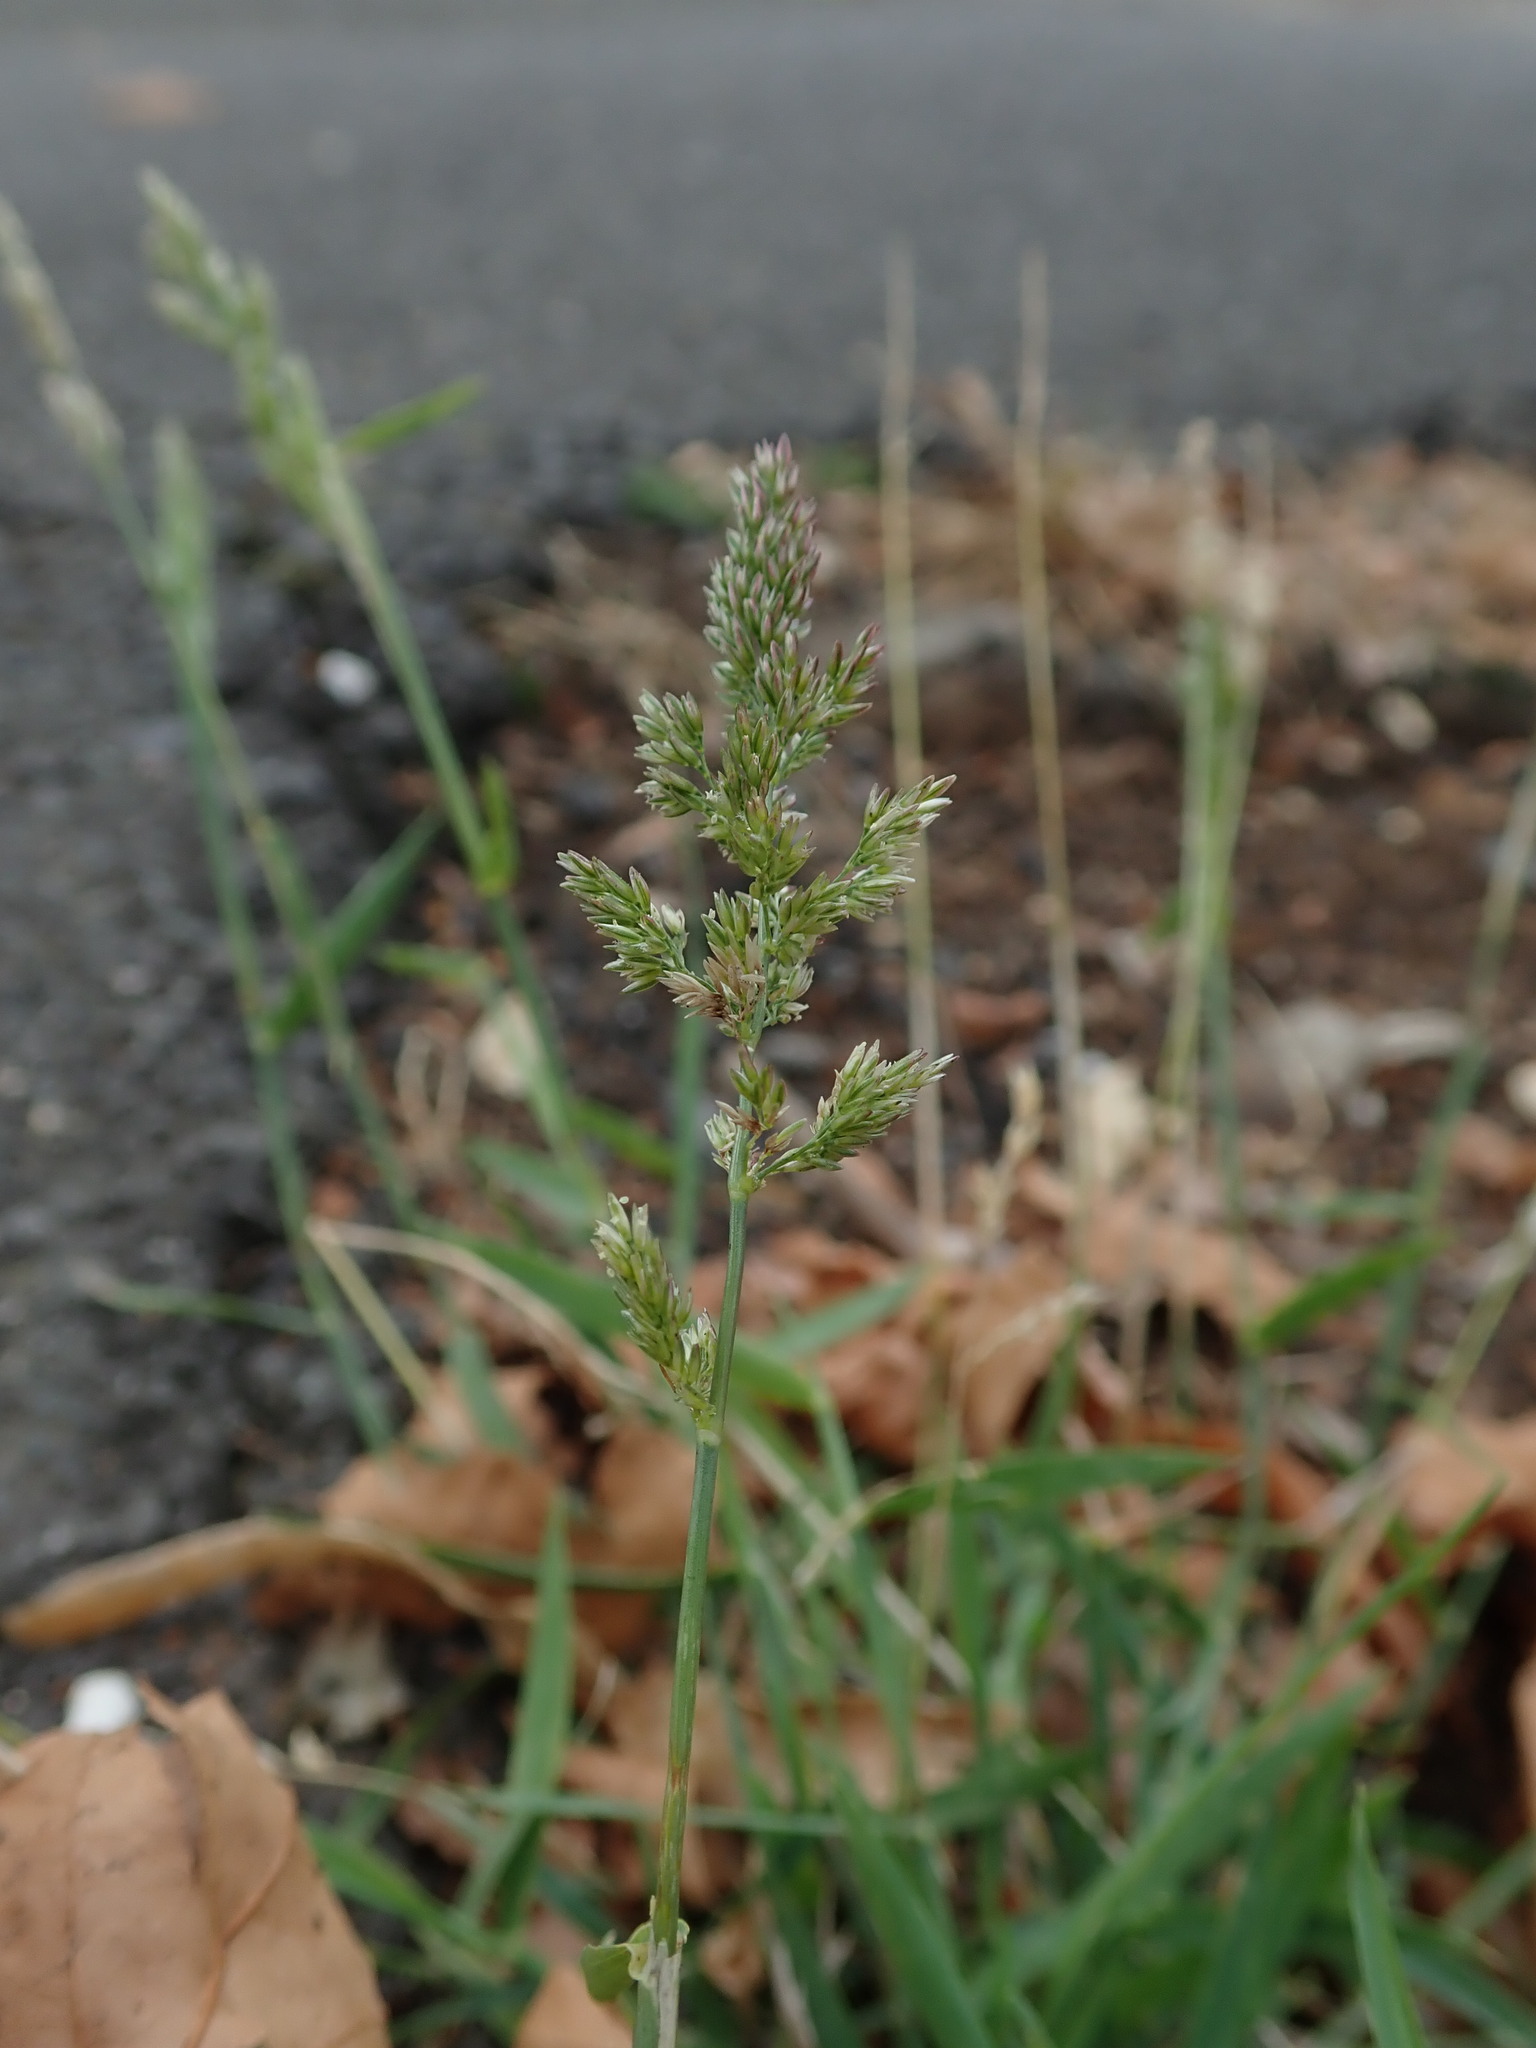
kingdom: Plantae
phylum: Tracheophyta
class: Liliopsida
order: Poales
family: Poaceae
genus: Polypogon
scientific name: Polypogon viridis
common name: Water bent
